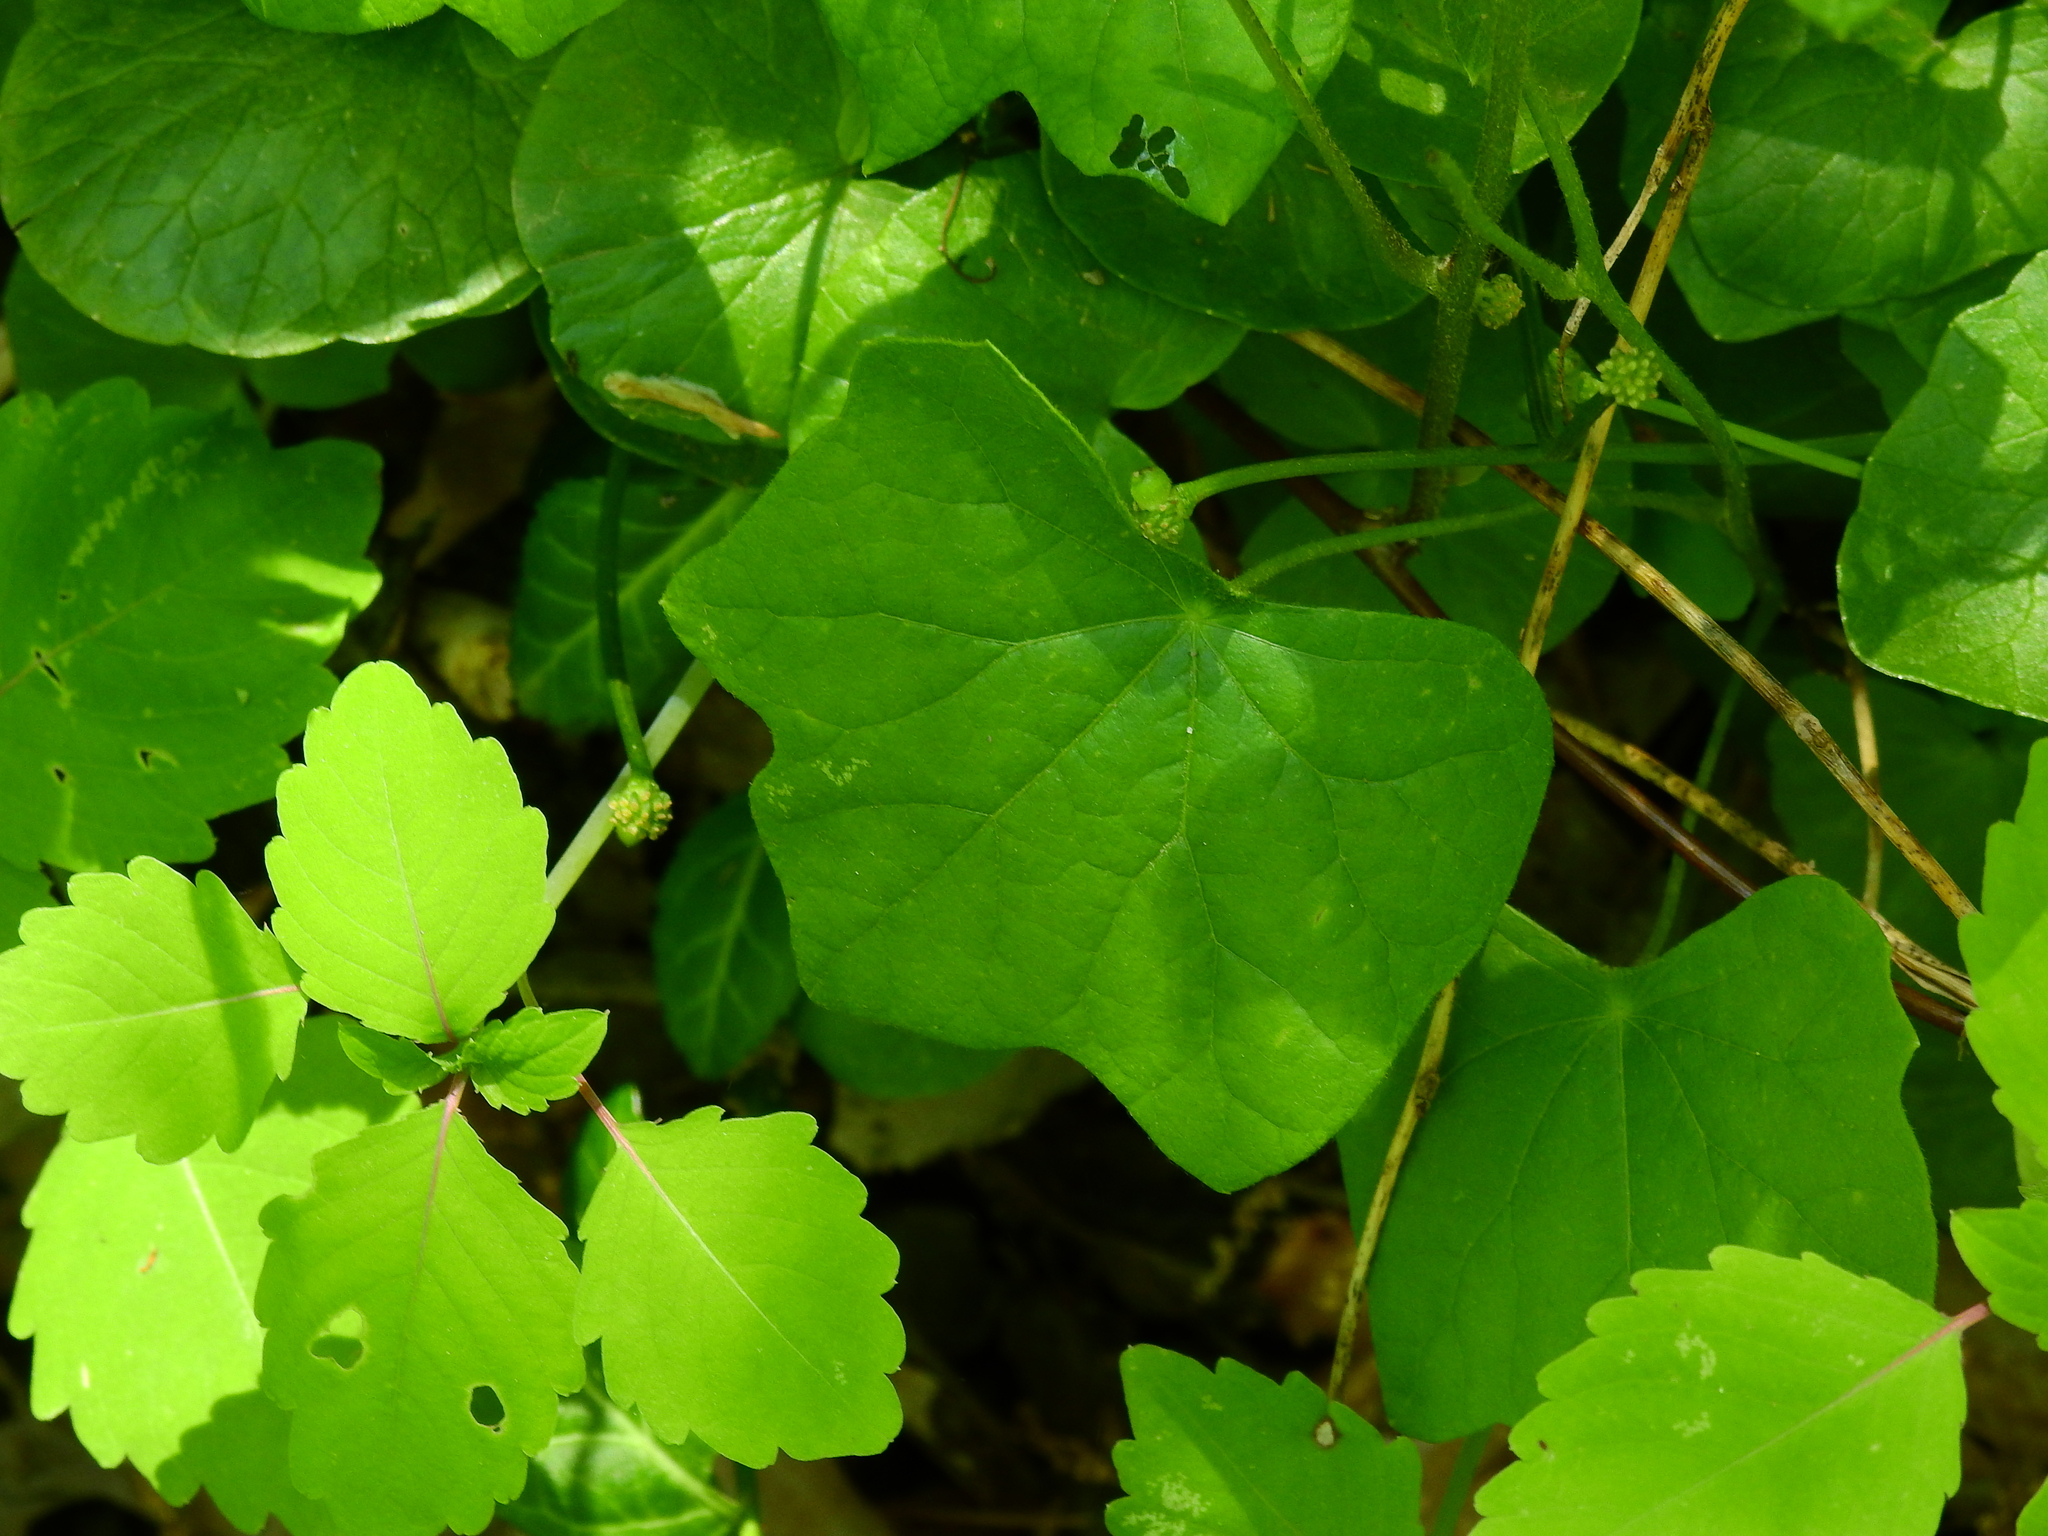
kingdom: Plantae
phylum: Tracheophyta
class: Magnoliopsida
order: Ranunculales
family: Menispermaceae
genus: Menispermum
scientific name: Menispermum canadense
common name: Moonseed
